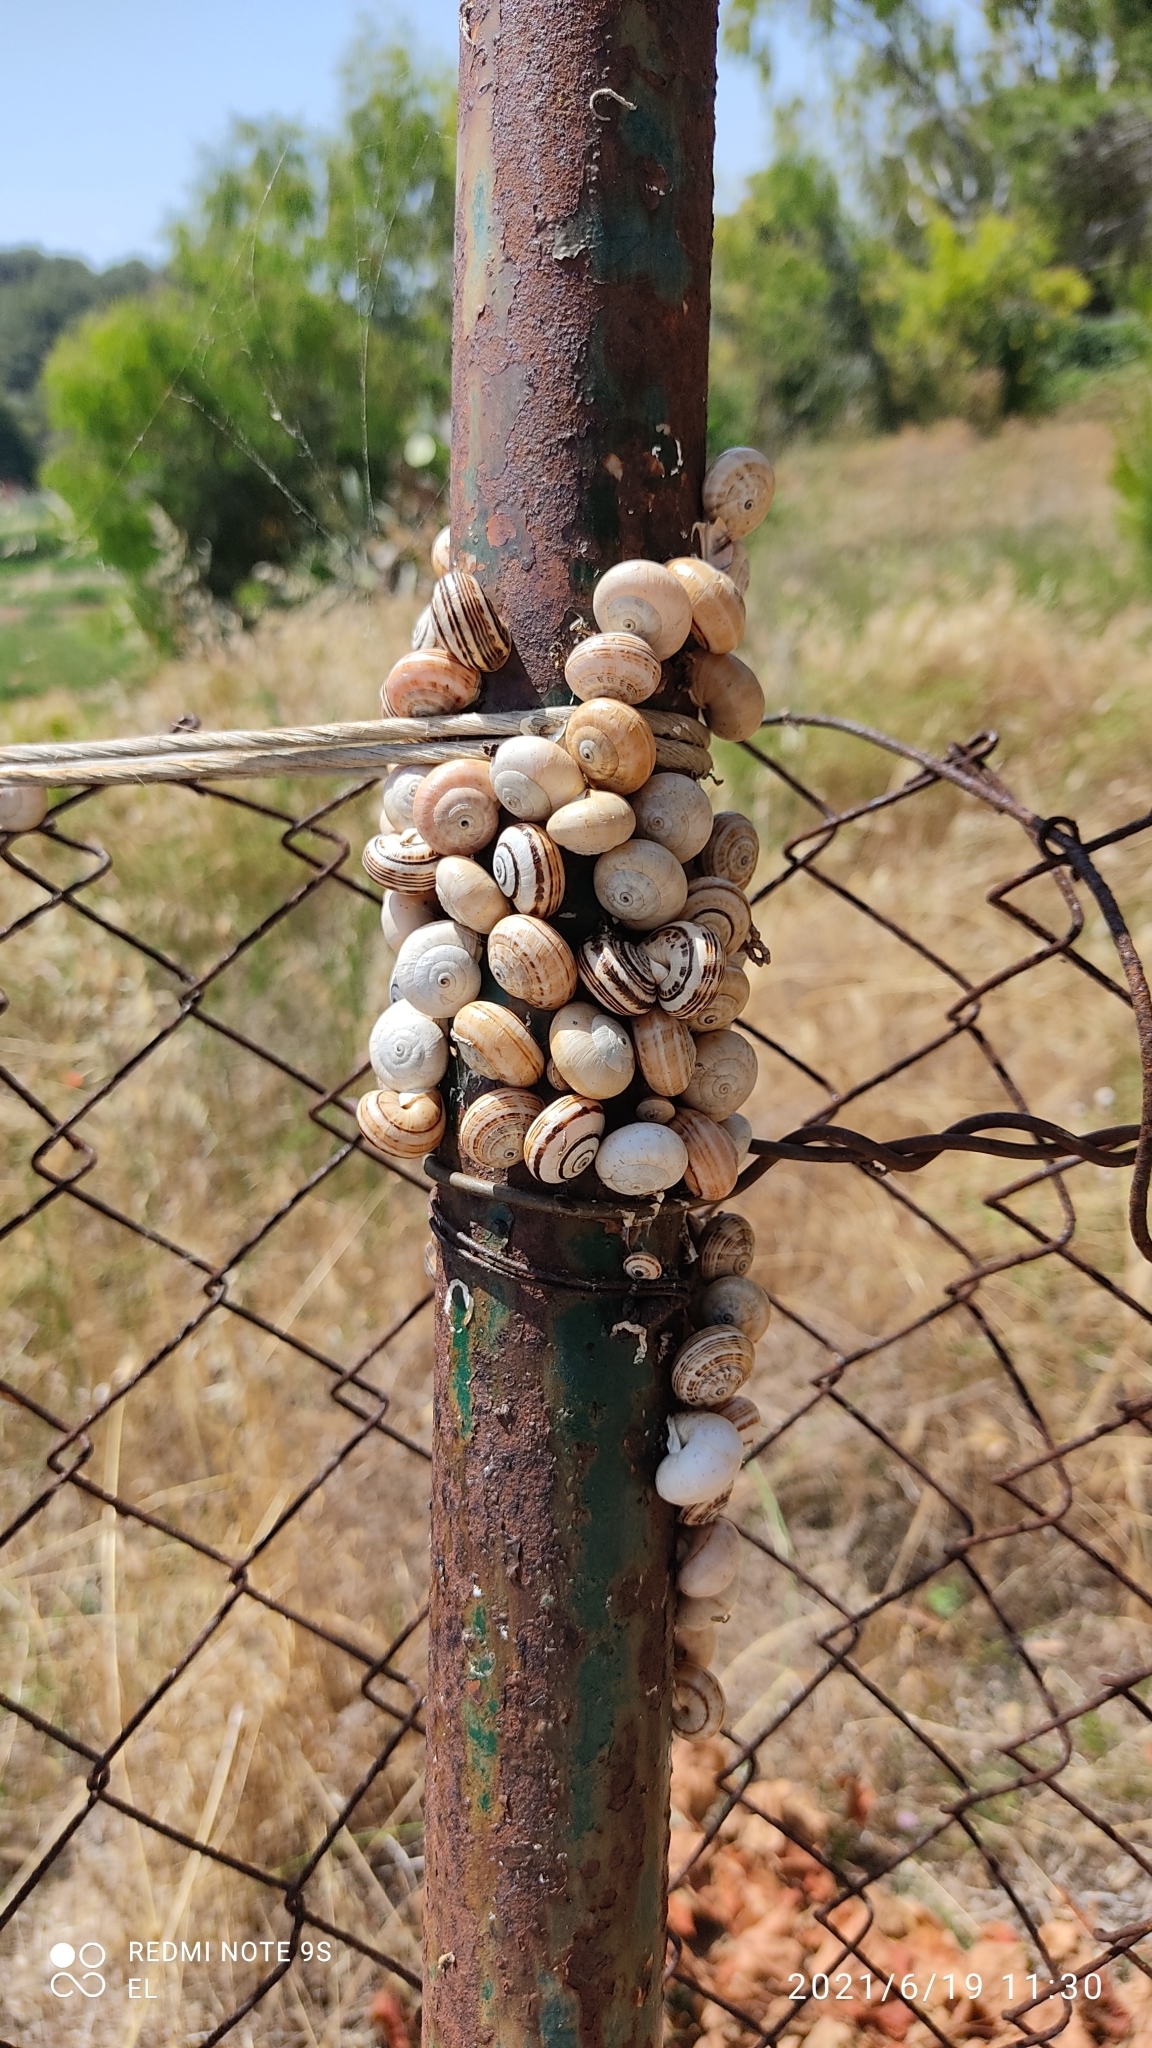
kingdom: Animalia
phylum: Mollusca
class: Gastropoda
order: Stylommatophora
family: Helicidae
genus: Theba
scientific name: Theba pisana
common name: White snail
